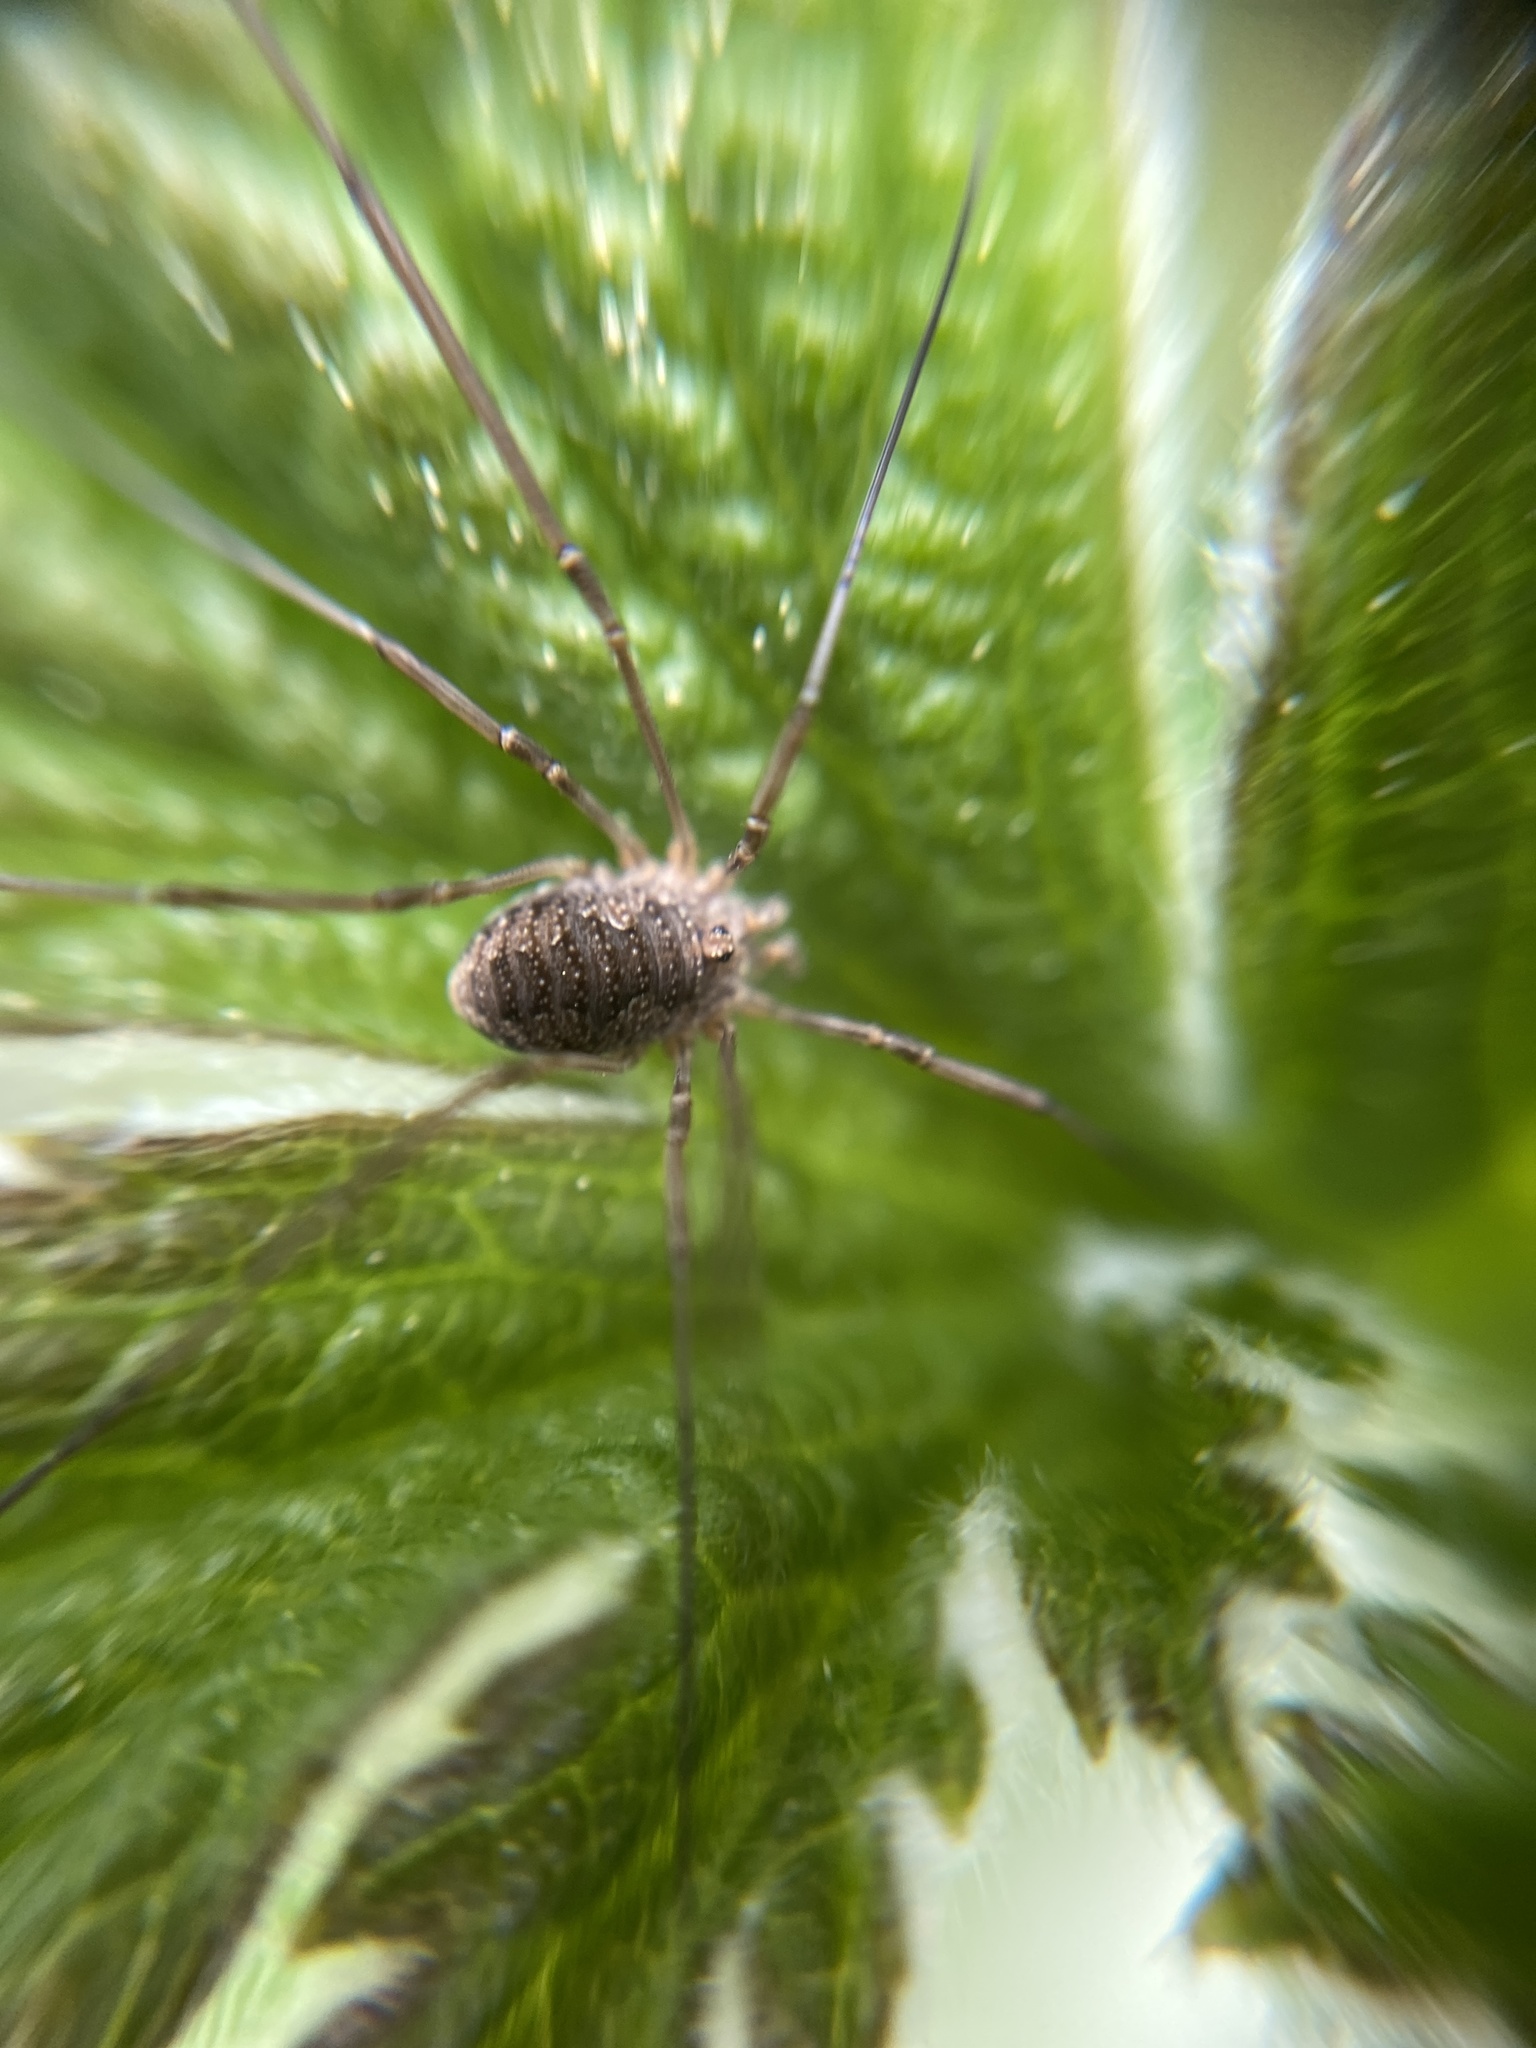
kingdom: Animalia
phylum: Arthropoda
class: Arachnida
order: Opiliones
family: Phalangiidae
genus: Phalangium
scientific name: Phalangium opilio
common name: Daddy longleg
